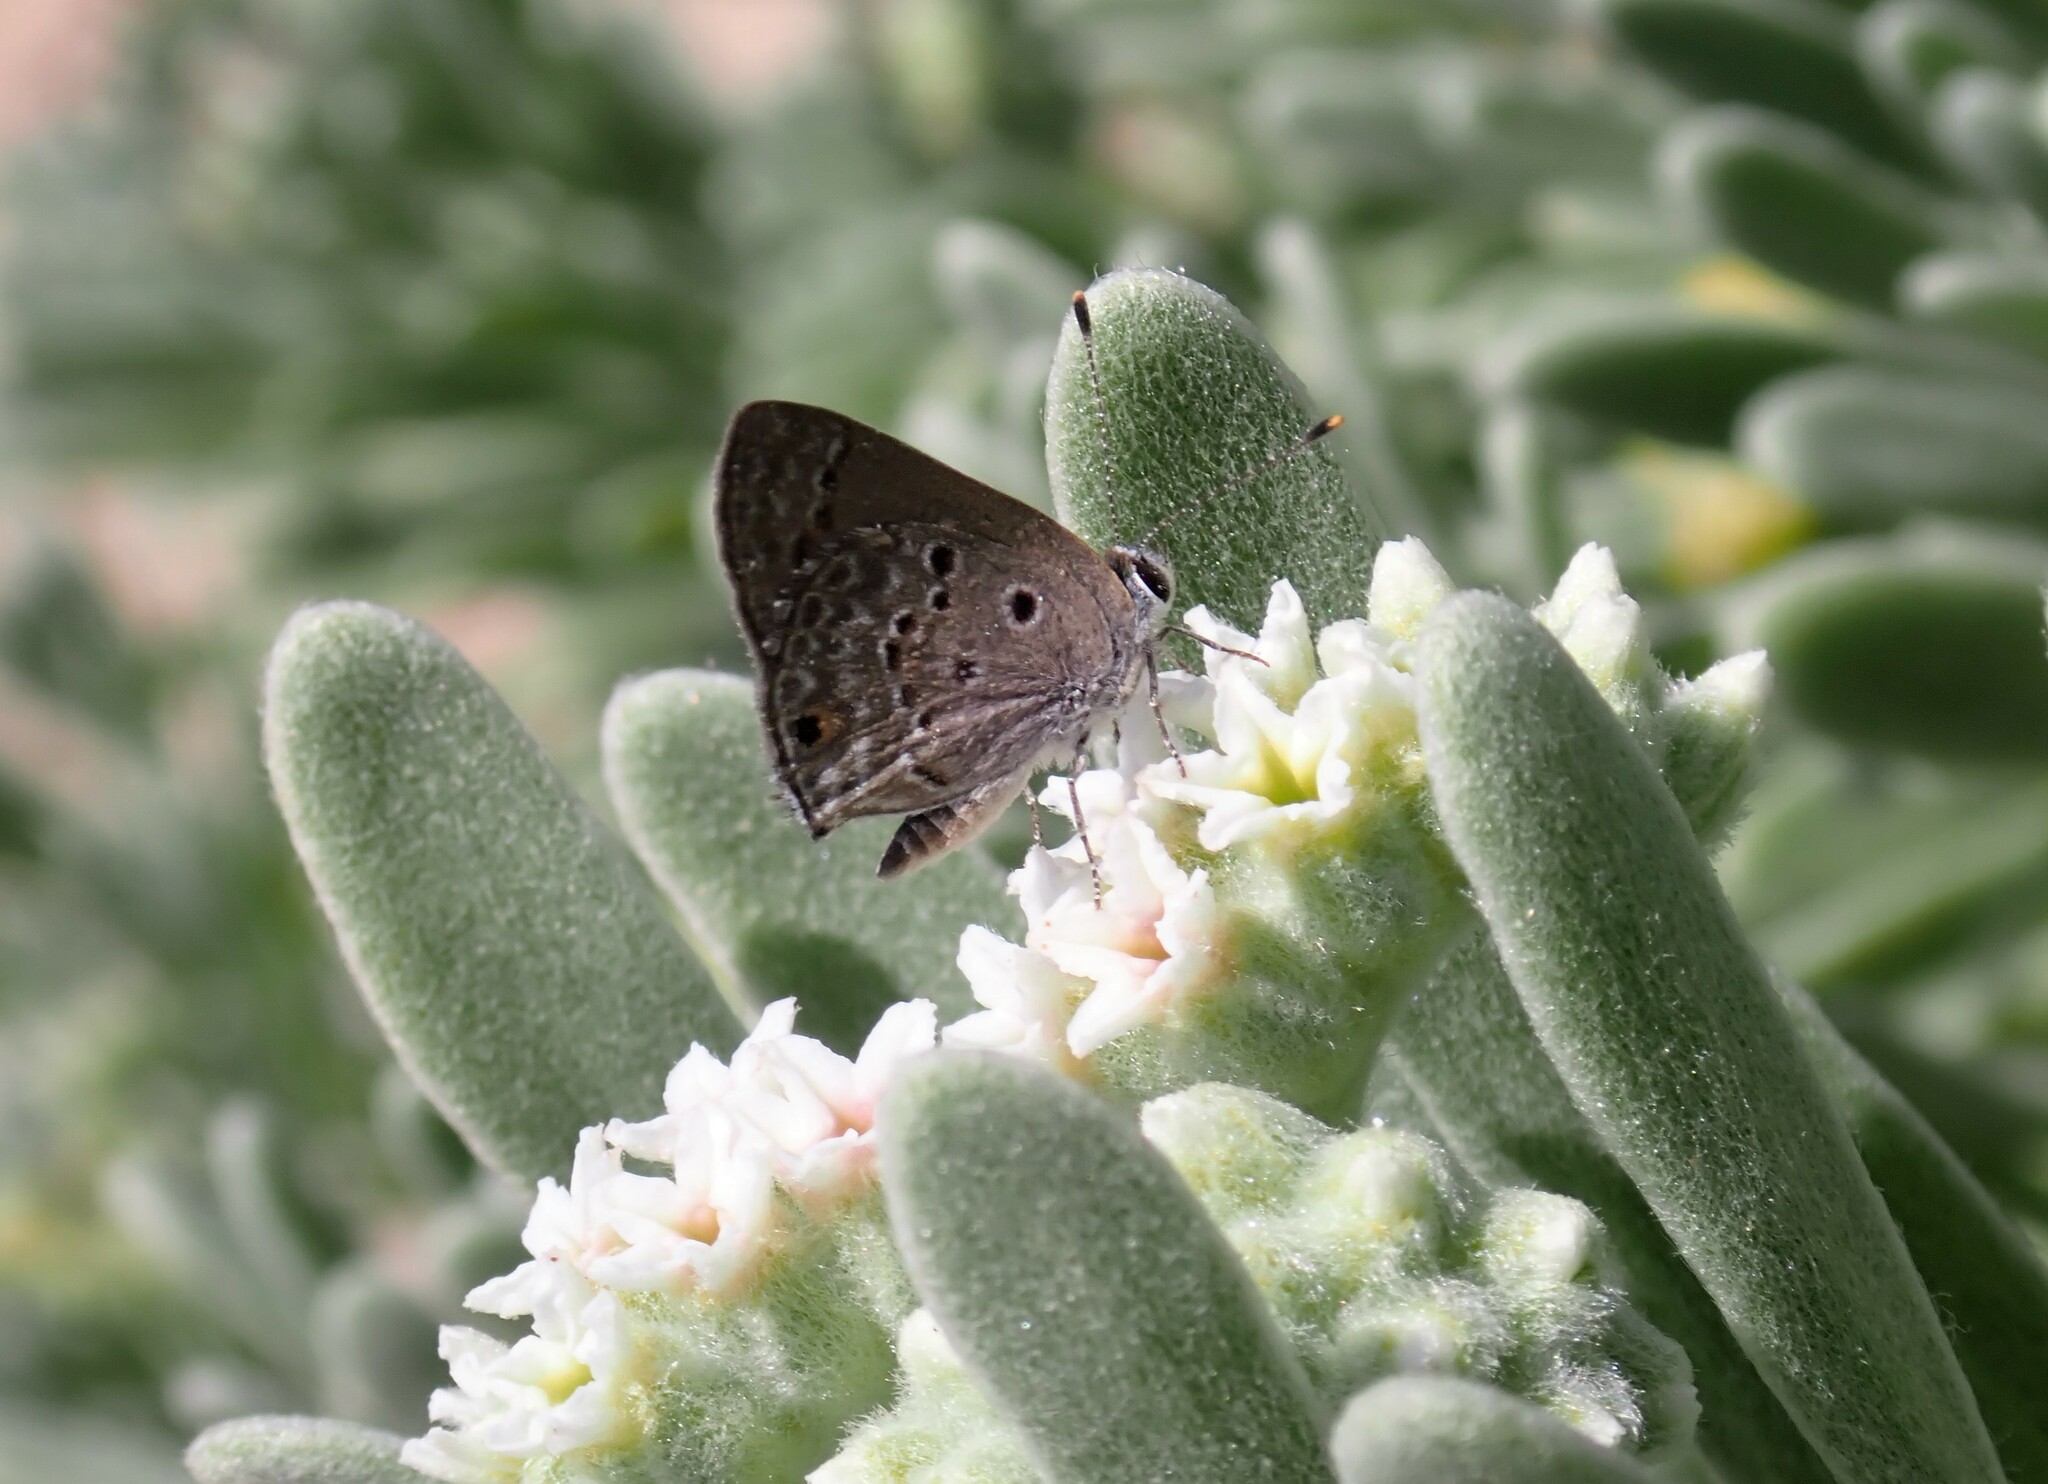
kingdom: Animalia
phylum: Arthropoda
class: Insecta
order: Lepidoptera
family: Lycaenidae
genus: Strymon
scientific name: Strymon bubastus
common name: Bubastes hairstreak
